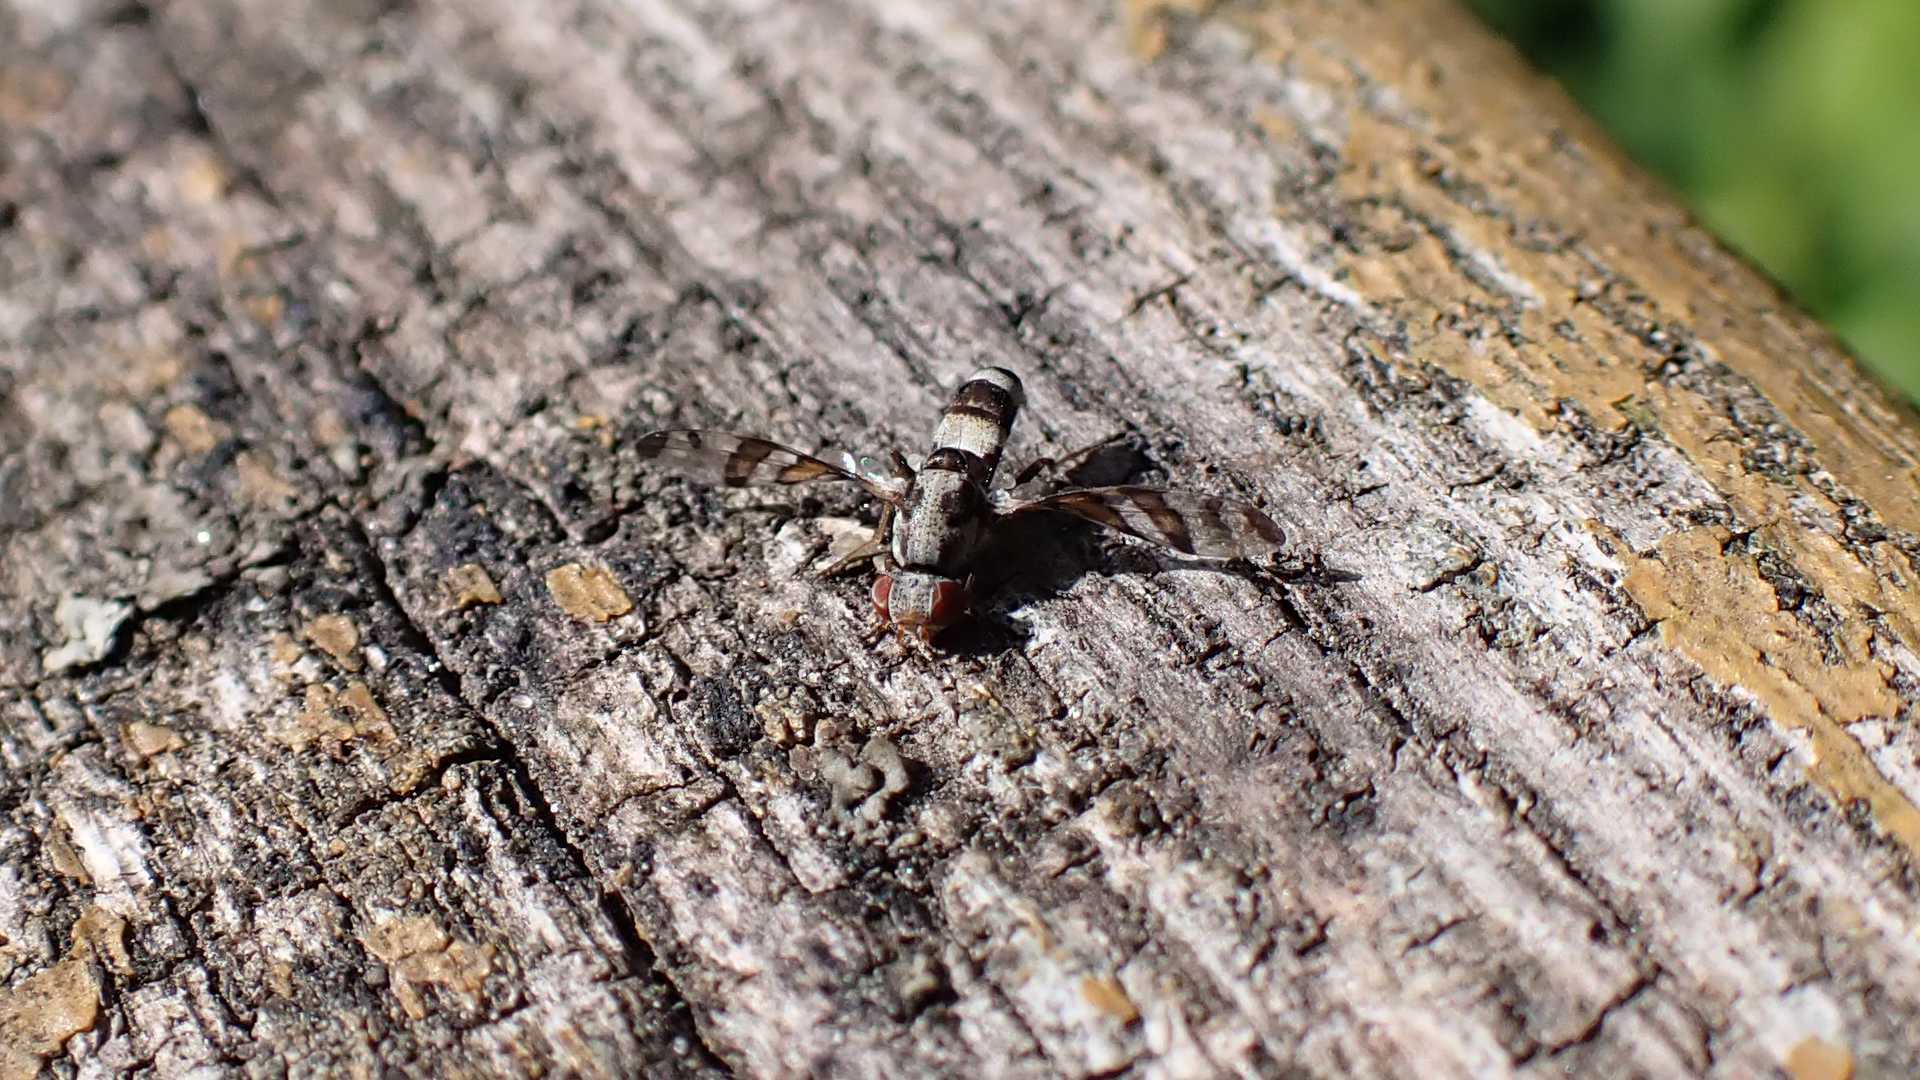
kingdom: Animalia
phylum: Arthropoda
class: Insecta
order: Diptera
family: Ulidiidae
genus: Myennis
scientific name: Myennis octopunctata
